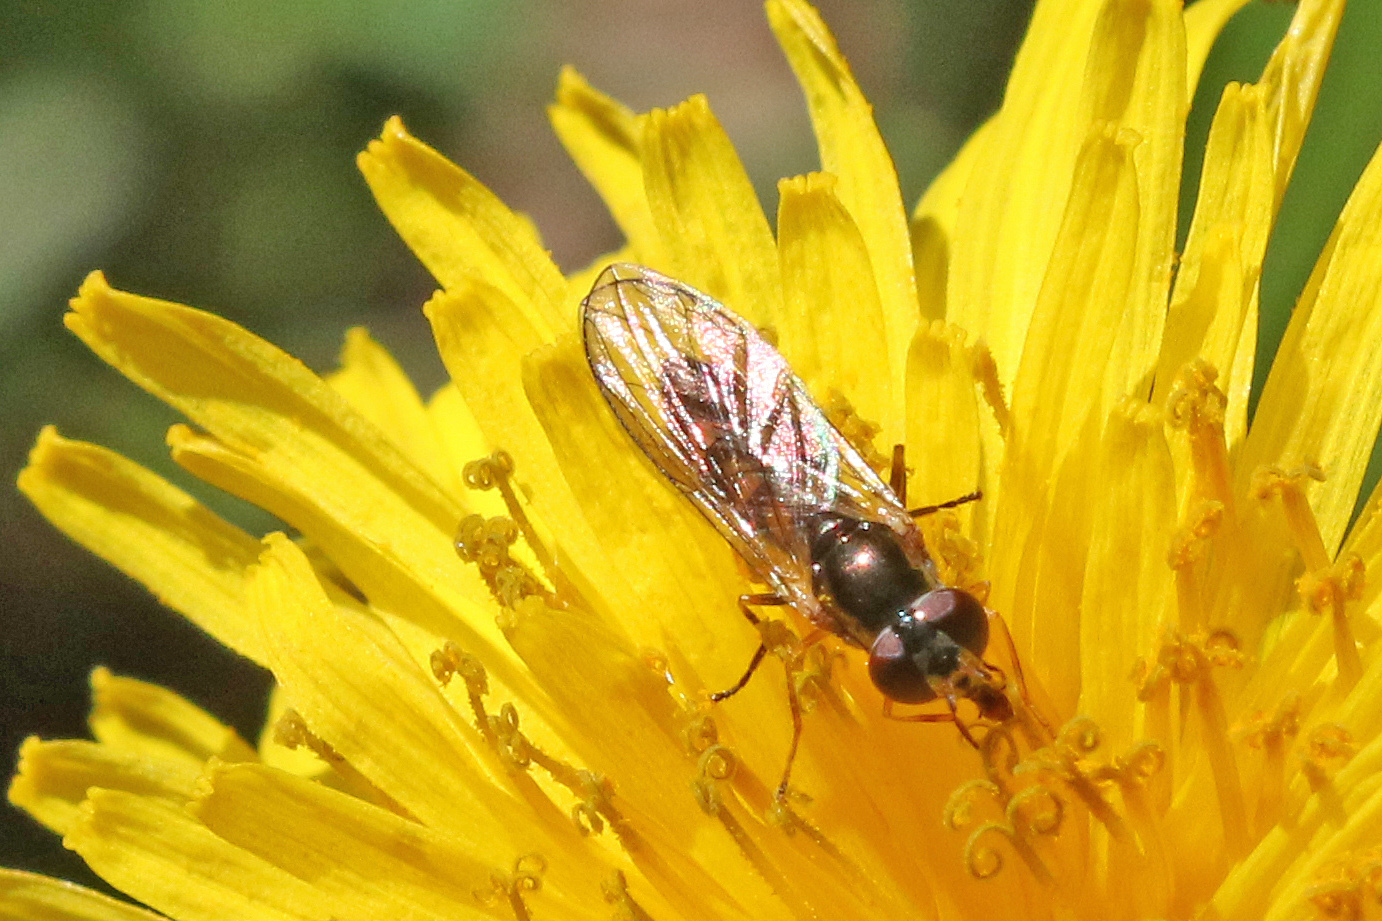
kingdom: Animalia
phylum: Arthropoda
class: Insecta
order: Diptera
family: Syrphidae
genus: Melanostoma
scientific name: Melanostoma scalare
